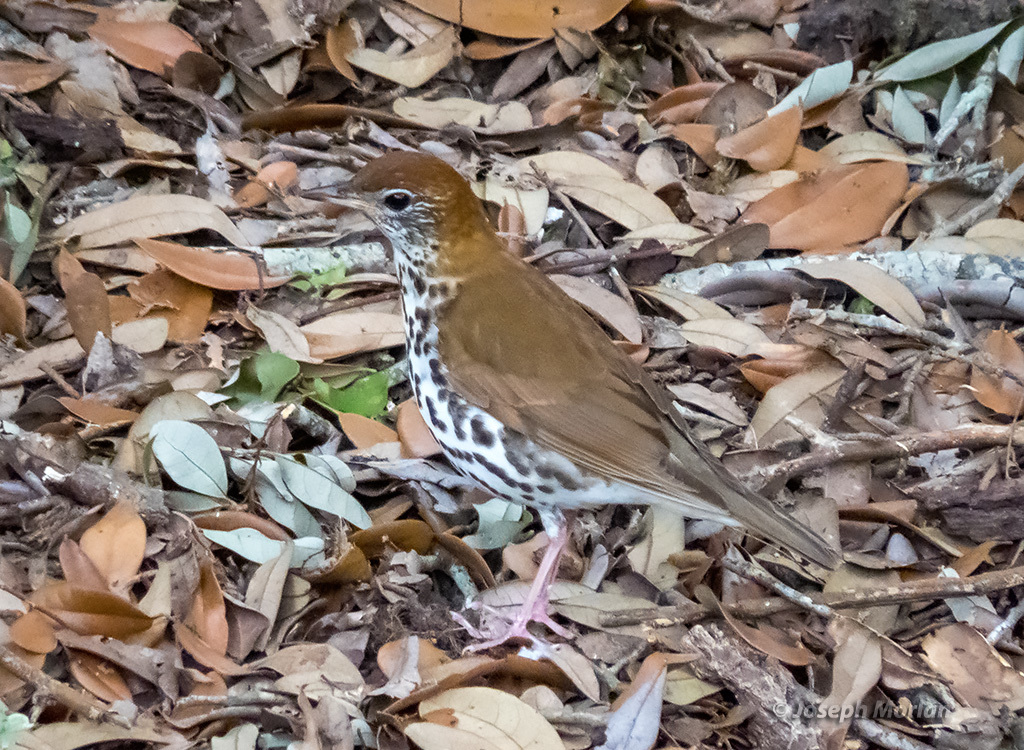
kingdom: Animalia
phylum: Chordata
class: Aves
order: Passeriformes
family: Turdidae
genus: Hylocichla
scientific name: Hylocichla mustelina
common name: Wood thrush
